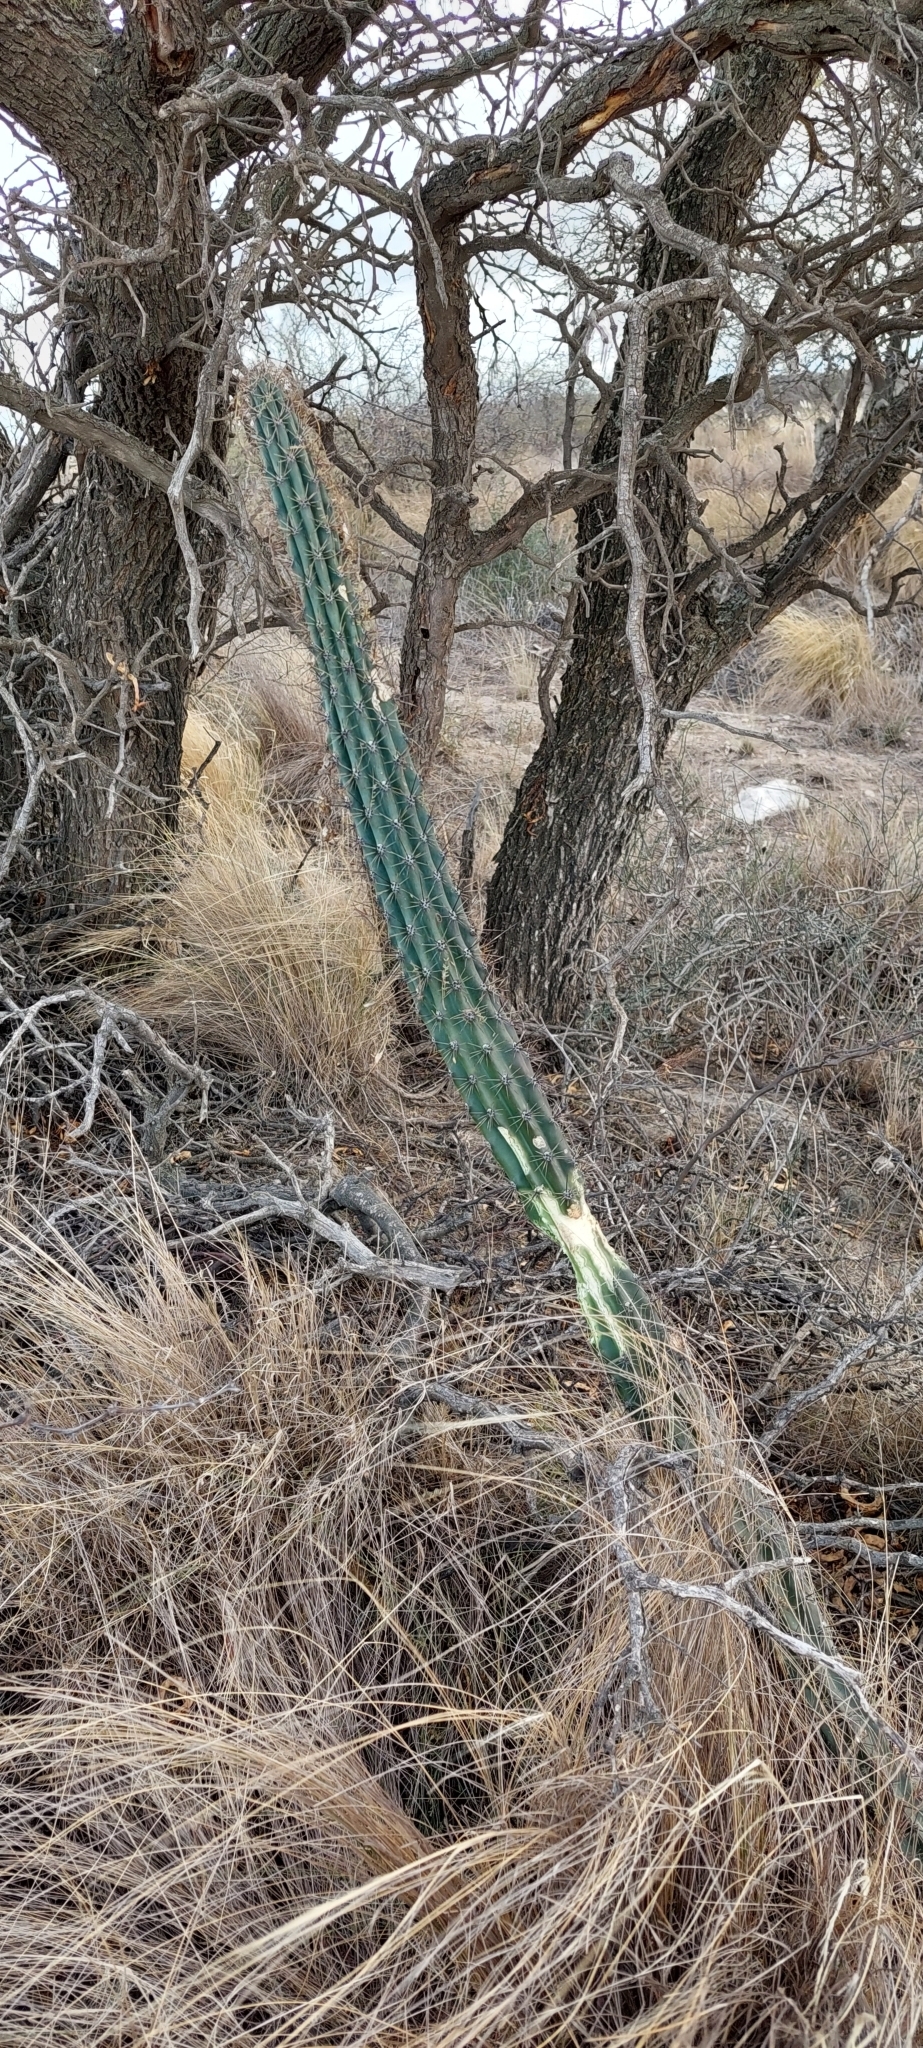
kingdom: Plantae
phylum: Tracheophyta
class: Magnoliopsida
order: Caryophyllales
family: Cactaceae
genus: Cereus
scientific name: Cereus aethiops
